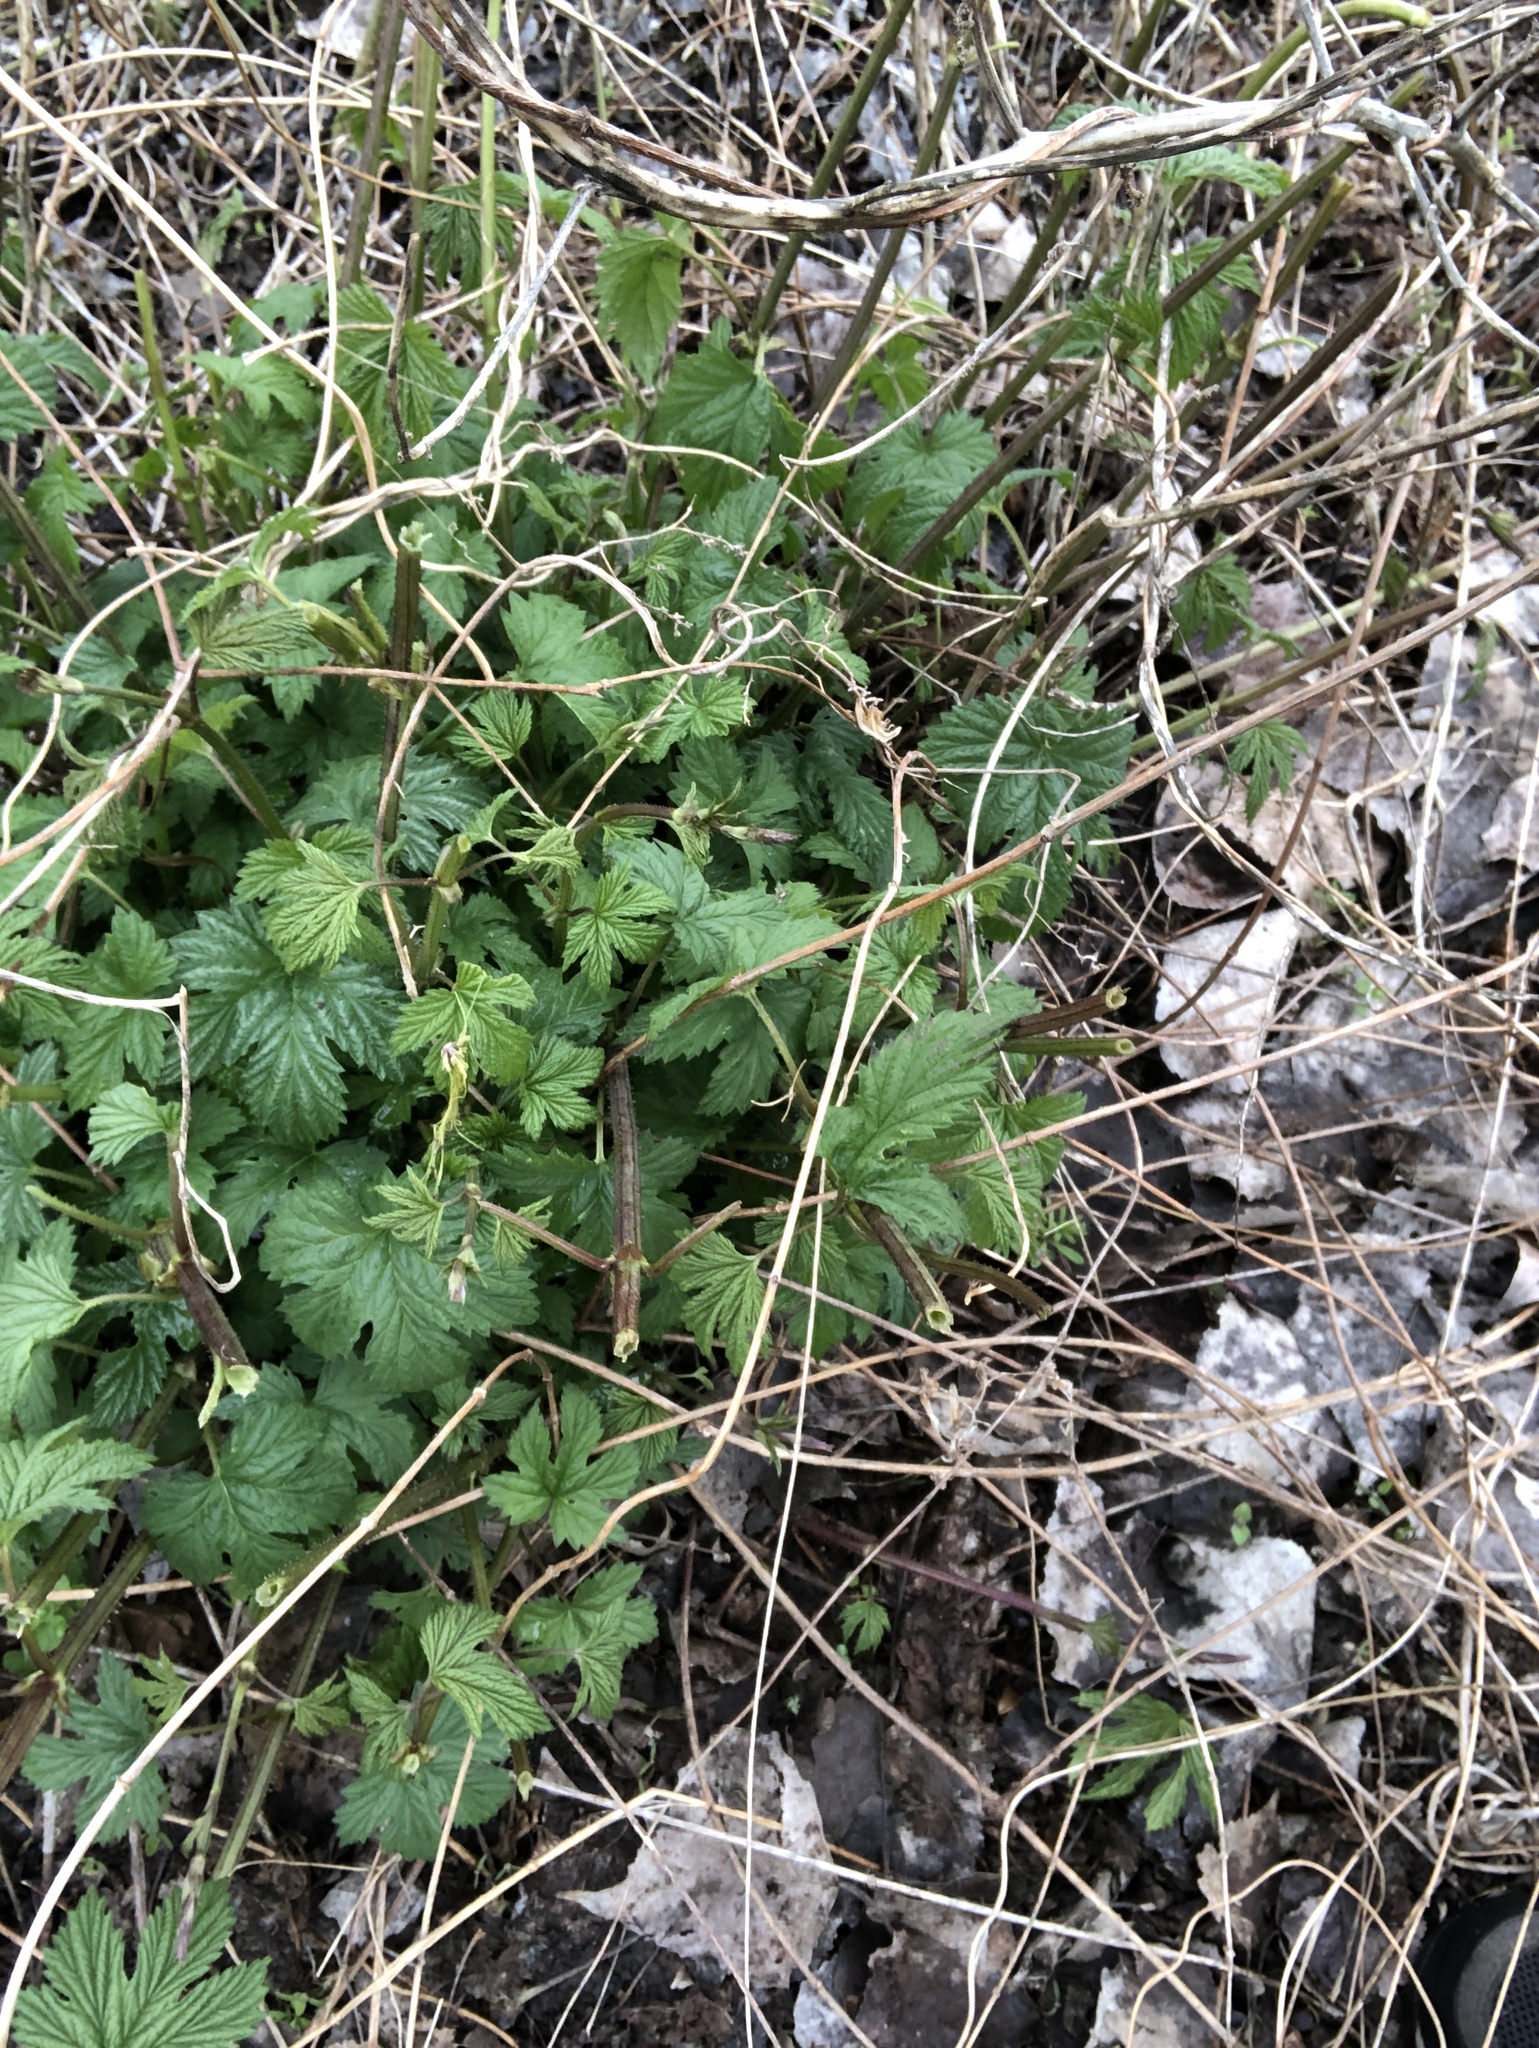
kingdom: Plantae
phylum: Tracheophyta
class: Magnoliopsida
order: Rosales
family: Cannabaceae
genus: Humulus
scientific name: Humulus lupulus
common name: Hop
